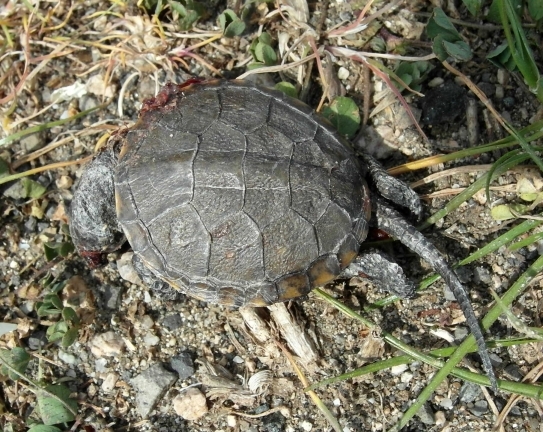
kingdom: Animalia
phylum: Chordata
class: Testudines
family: Emydidae
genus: Emys
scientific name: Emys orbicularis
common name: European pond turtle
